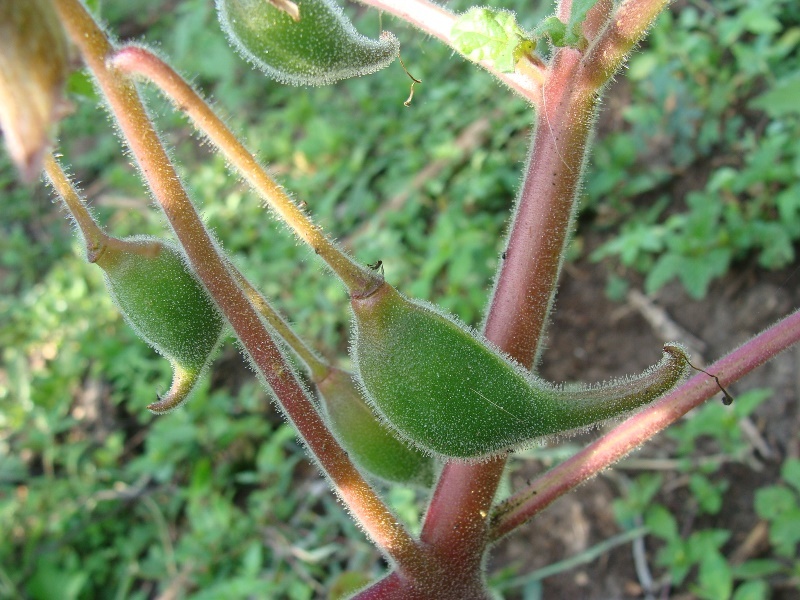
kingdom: Plantae
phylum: Tracheophyta
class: Magnoliopsida
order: Lamiales
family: Martyniaceae
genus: Proboscidea
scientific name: Proboscidea louisianica
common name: Elephant tusks
